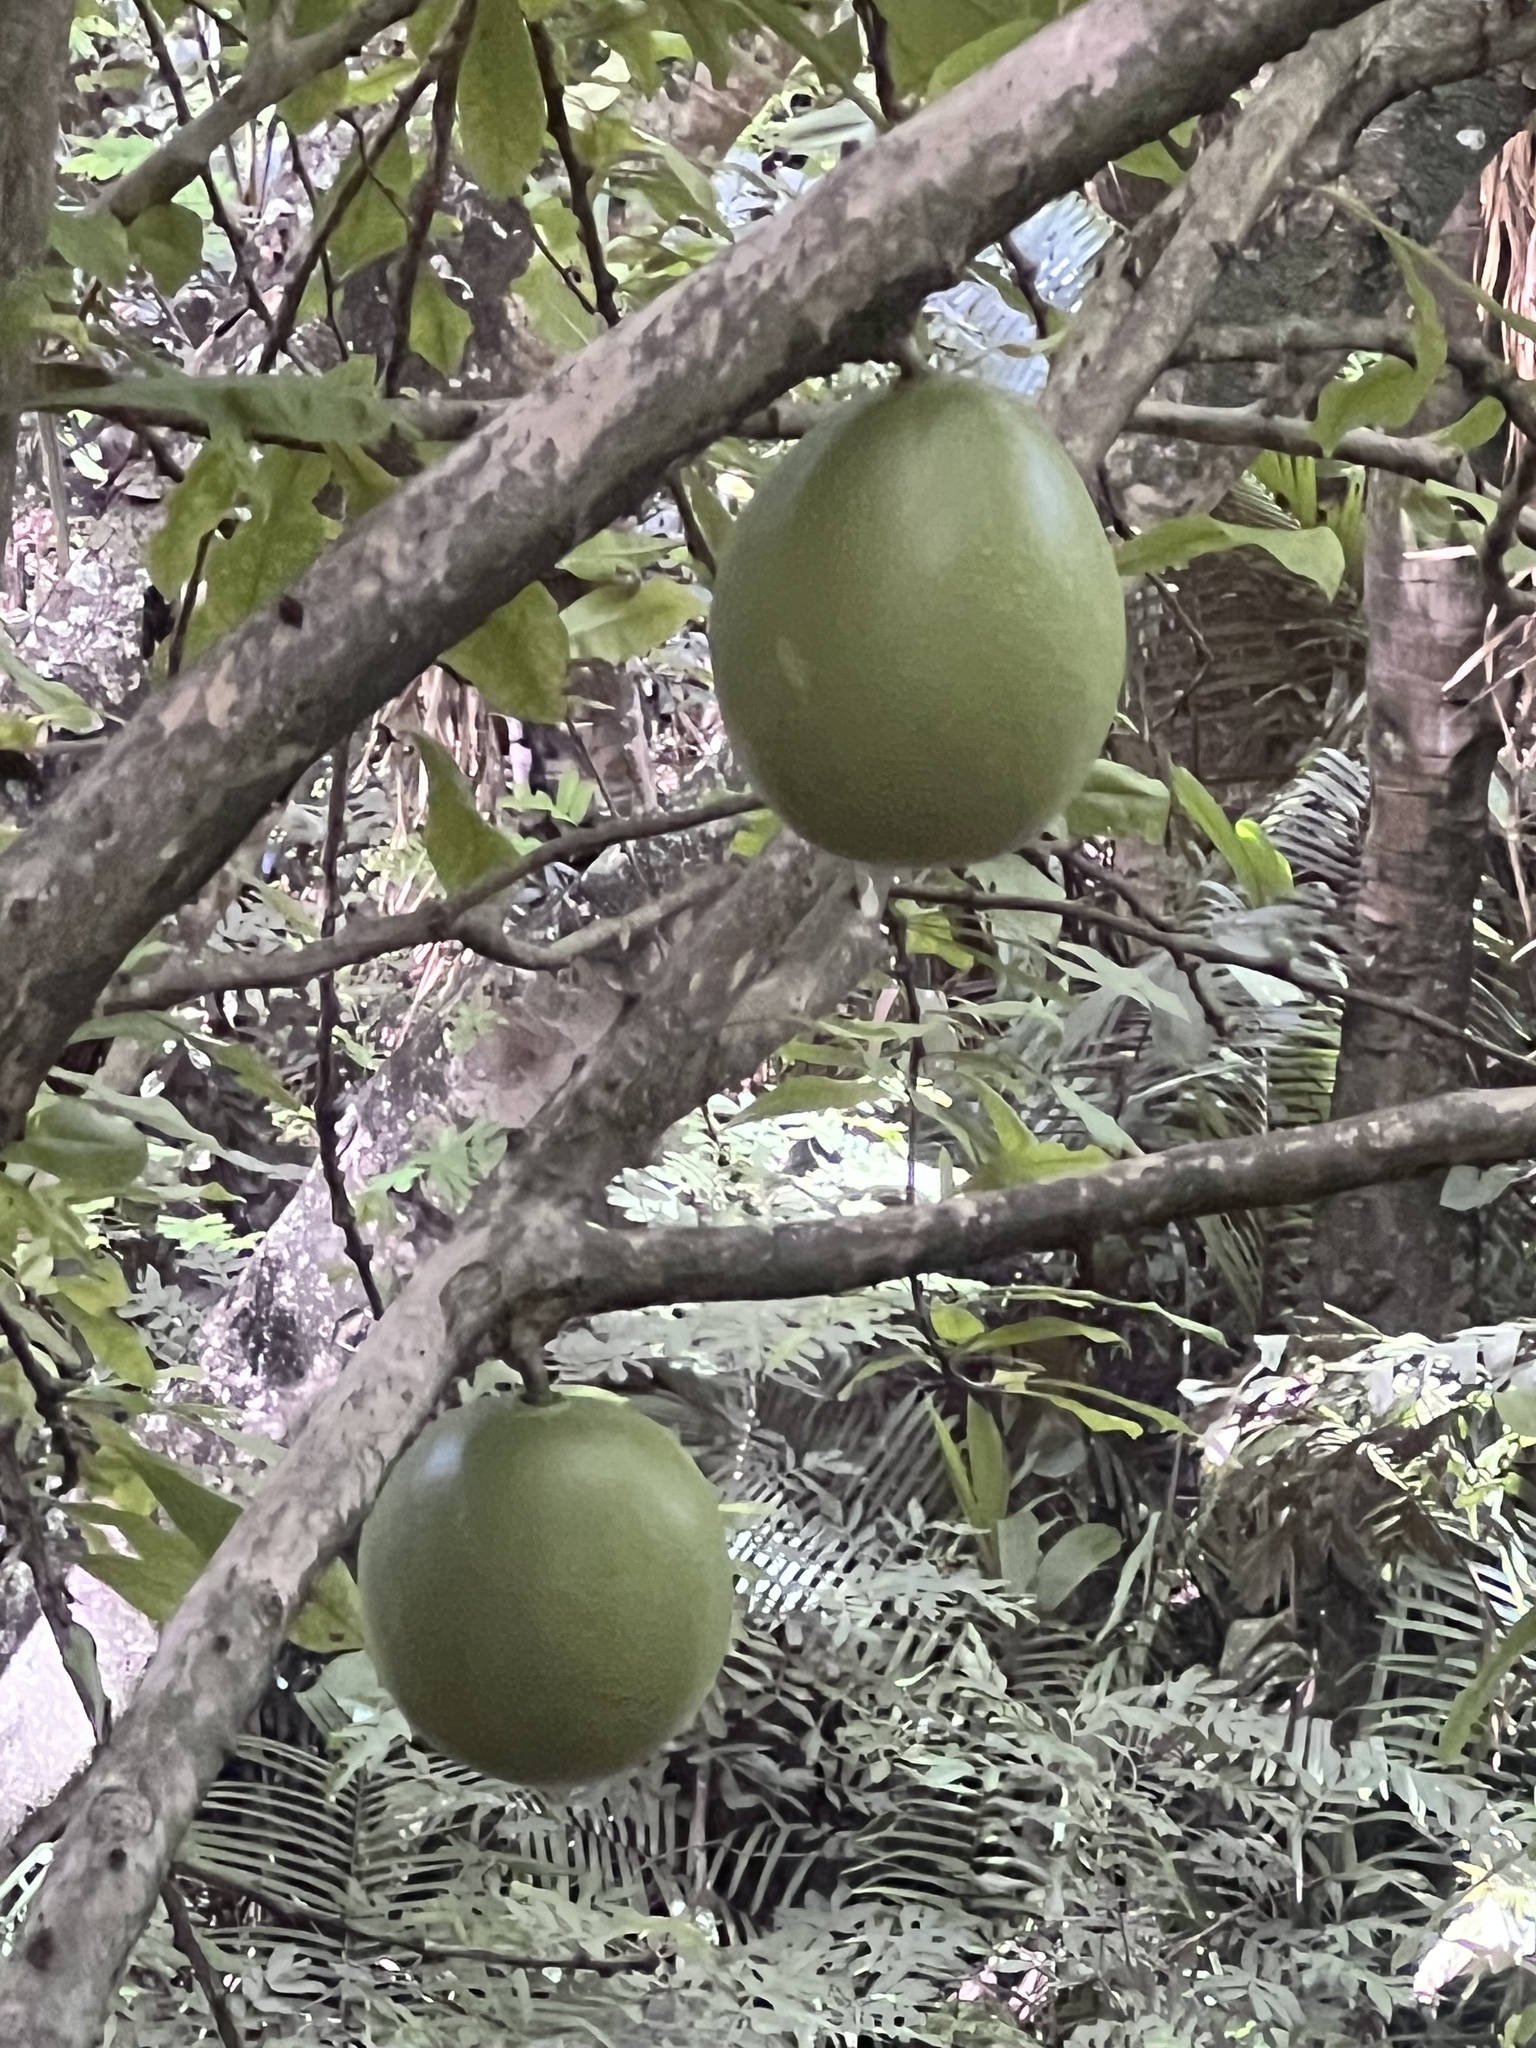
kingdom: Plantae
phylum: Tracheophyta
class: Magnoliopsida
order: Lamiales
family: Bignoniaceae
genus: Crescentia
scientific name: Crescentia cujete
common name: Calabash
